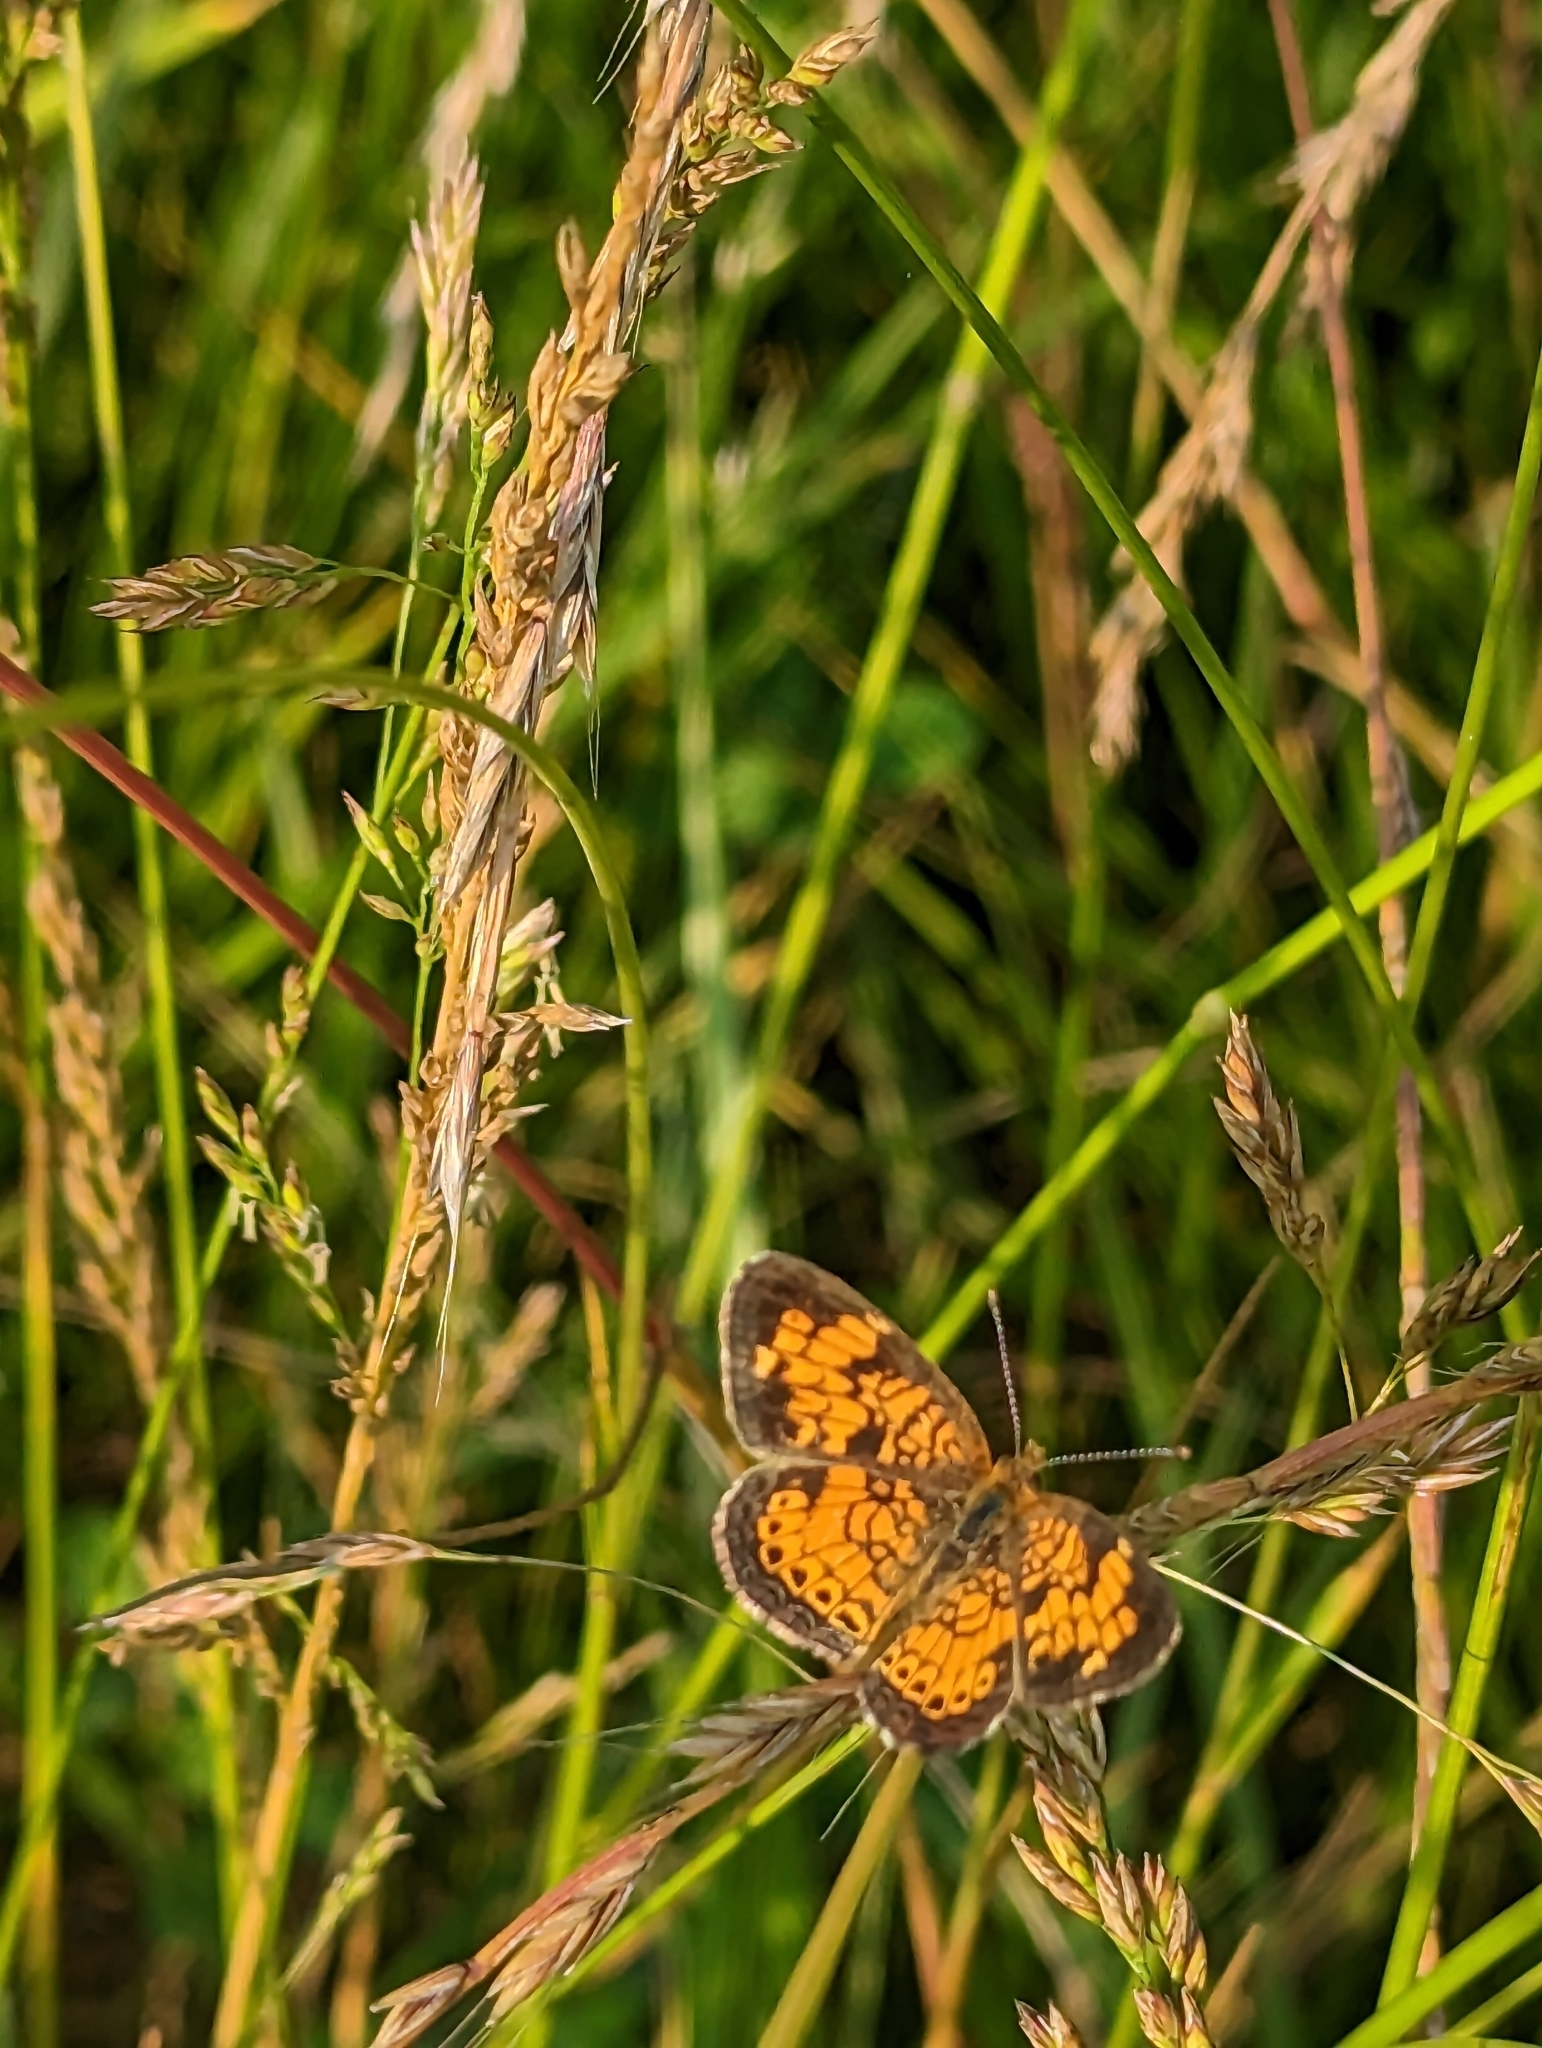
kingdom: Animalia
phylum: Arthropoda
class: Insecta
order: Lepidoptera
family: Nymphalidae
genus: Phyciodes
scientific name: Phyciodes tharos
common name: Pearl crescent
